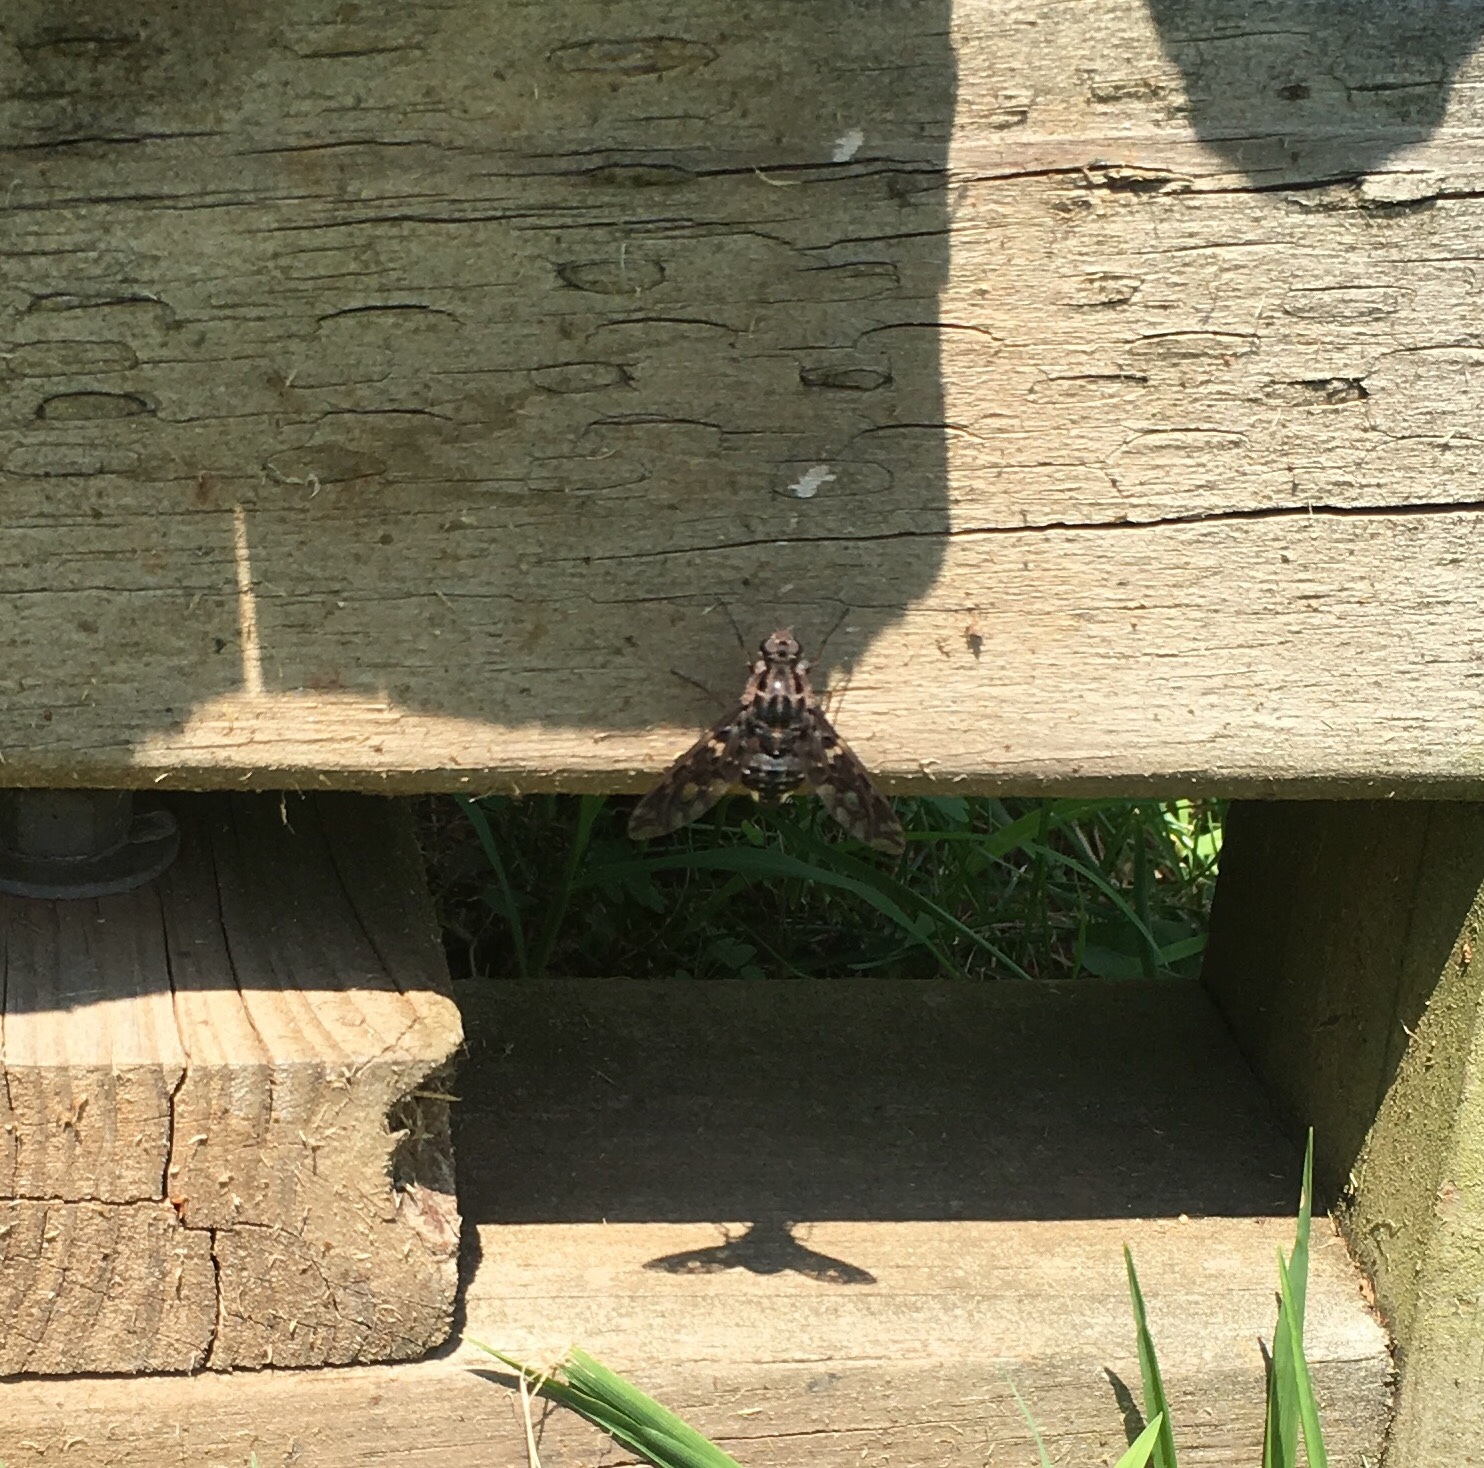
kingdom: Animalia
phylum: Arthropoda
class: Insecta
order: Diptera
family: Bombyliidae
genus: Xenox
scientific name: Xenox tigrinus
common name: Tiger bee fly
